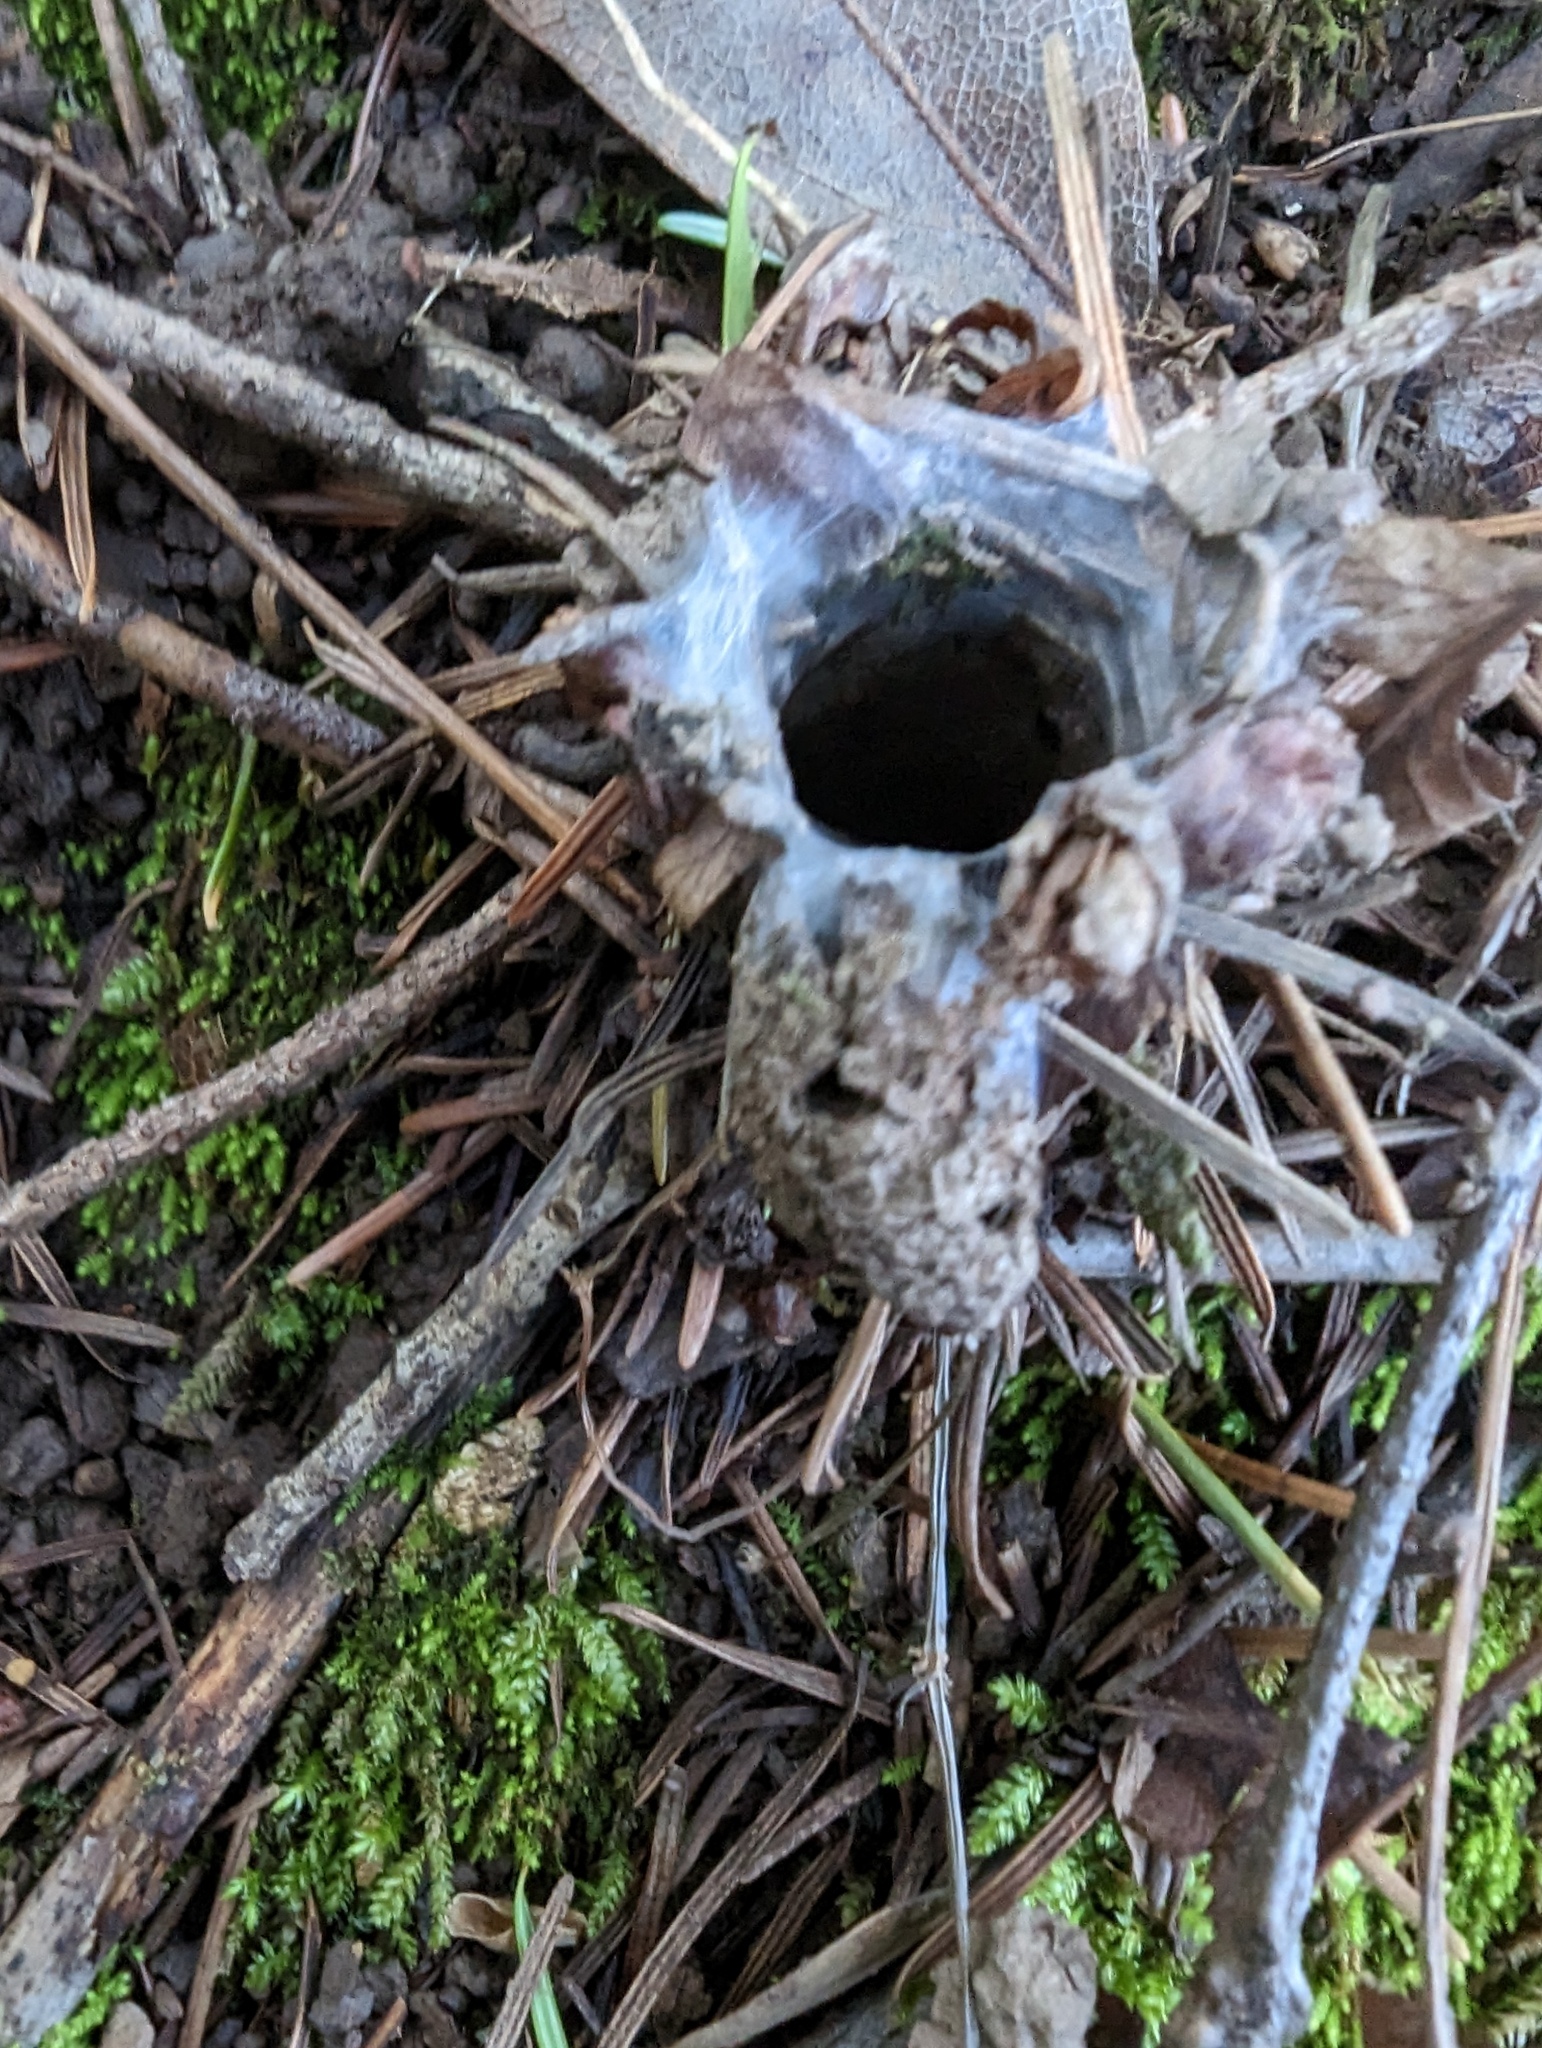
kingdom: Animalia
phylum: Arthropoda
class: Arachnida
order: Araneae
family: Antrodiaetidae
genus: Atypoides
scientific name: Atypoides riversi
